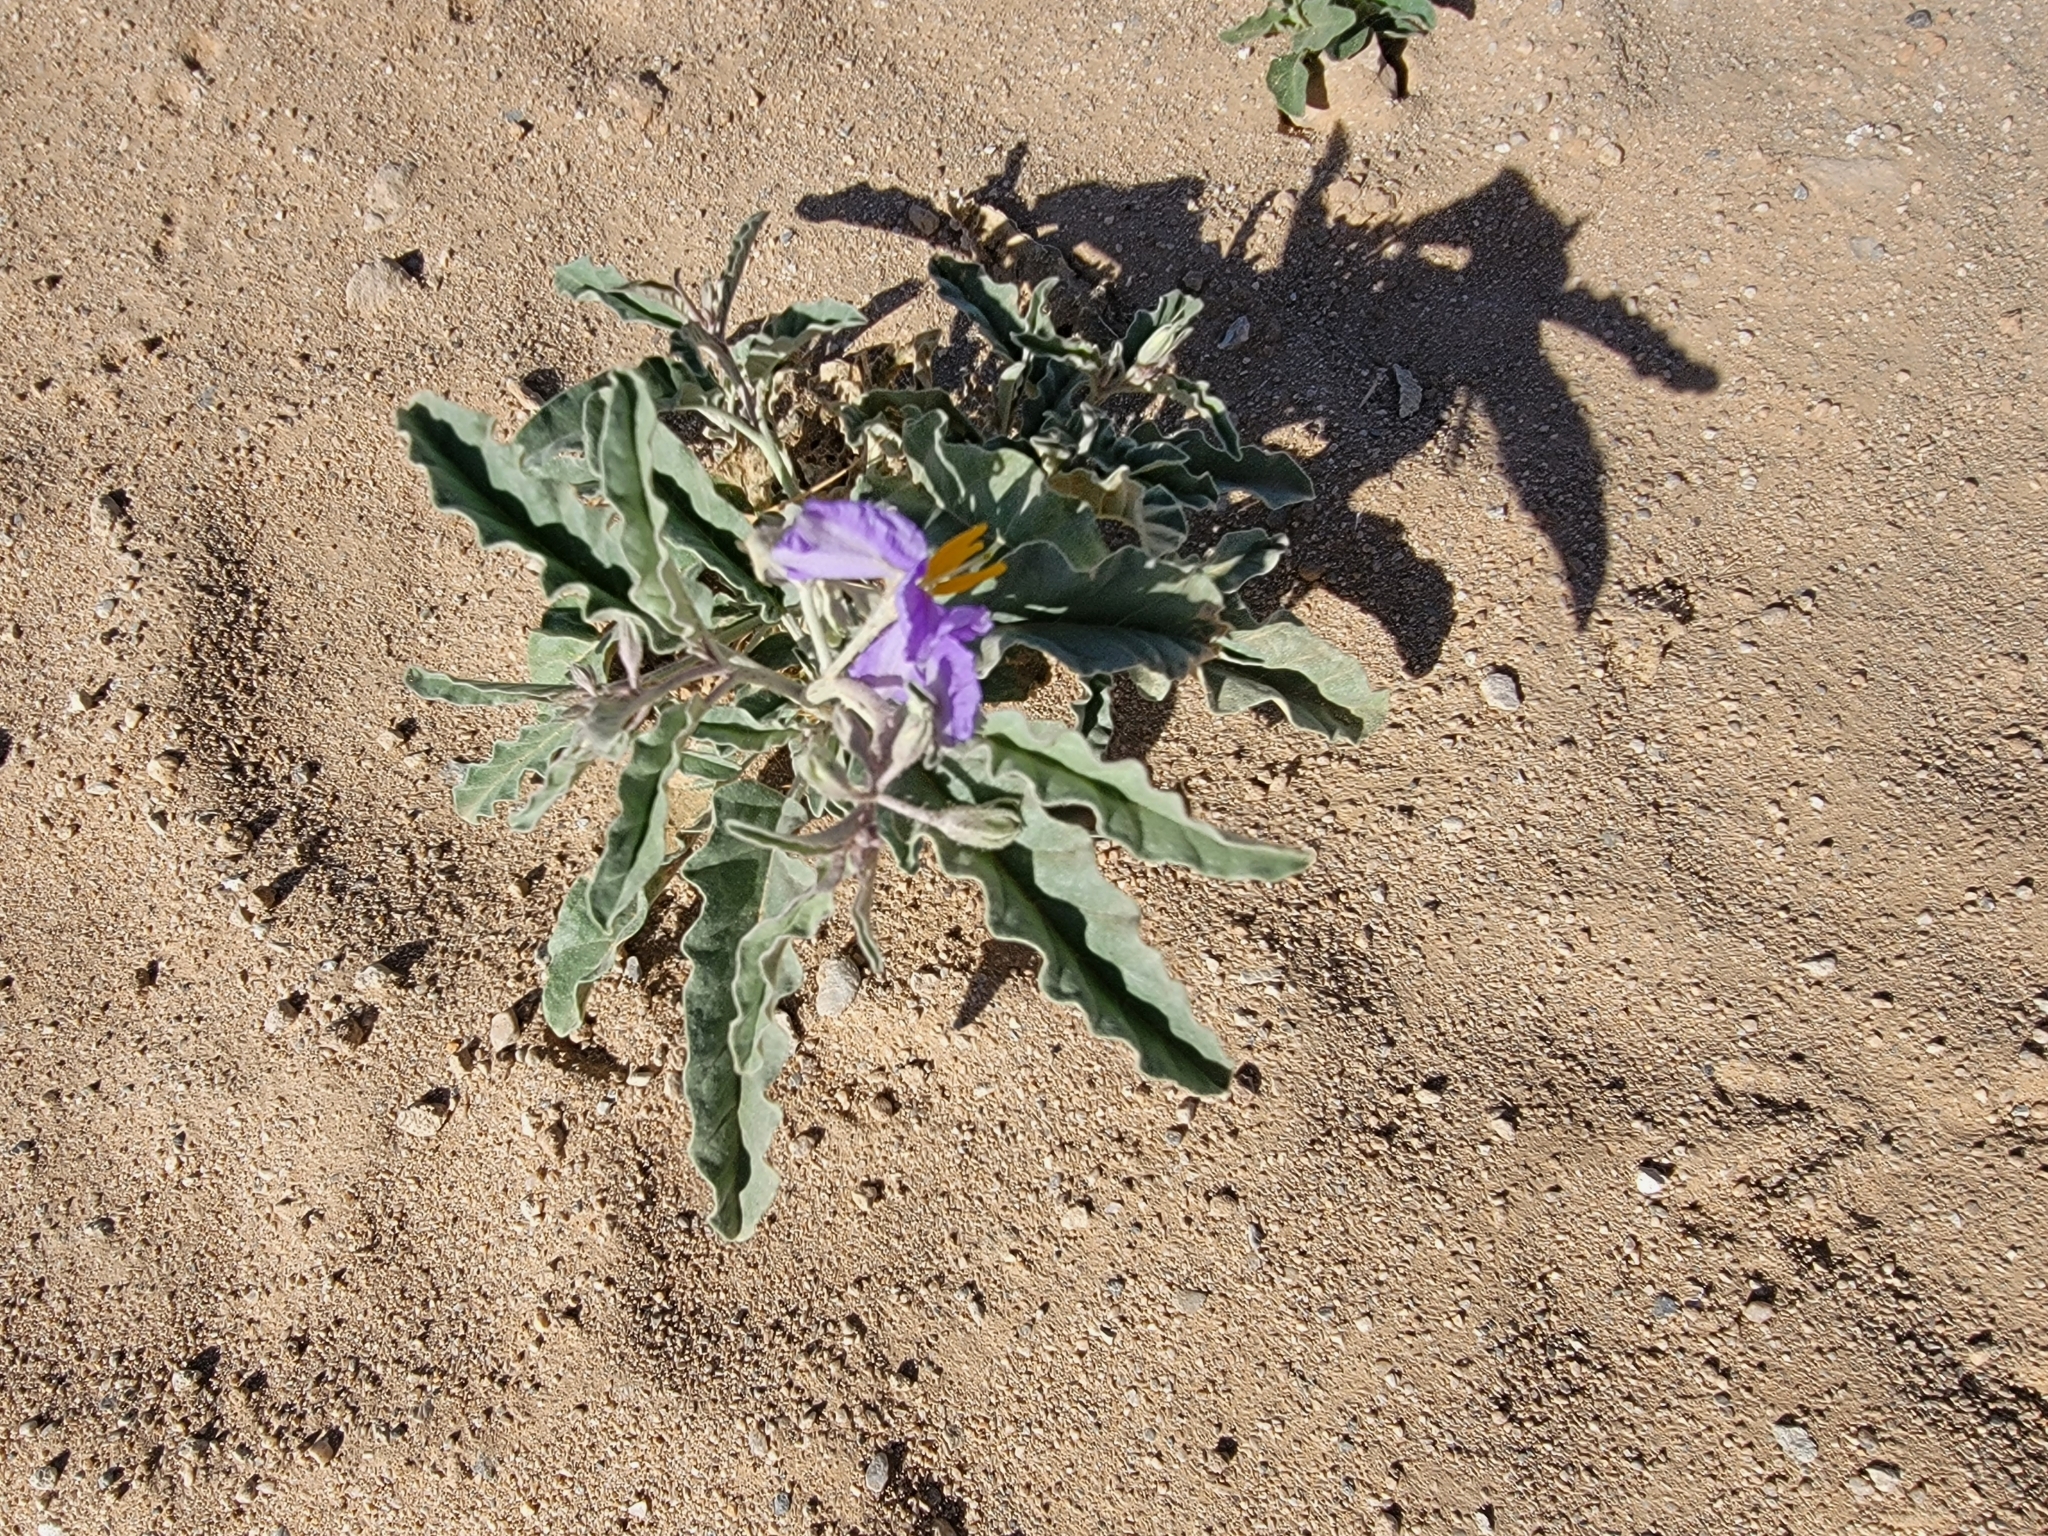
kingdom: Plantae
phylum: Tracheophyta
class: Magnoliopsida
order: Solanales
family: Solanaceae
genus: Solanum
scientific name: Solanum elaeagnifolium
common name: Silverleaf nightshade
